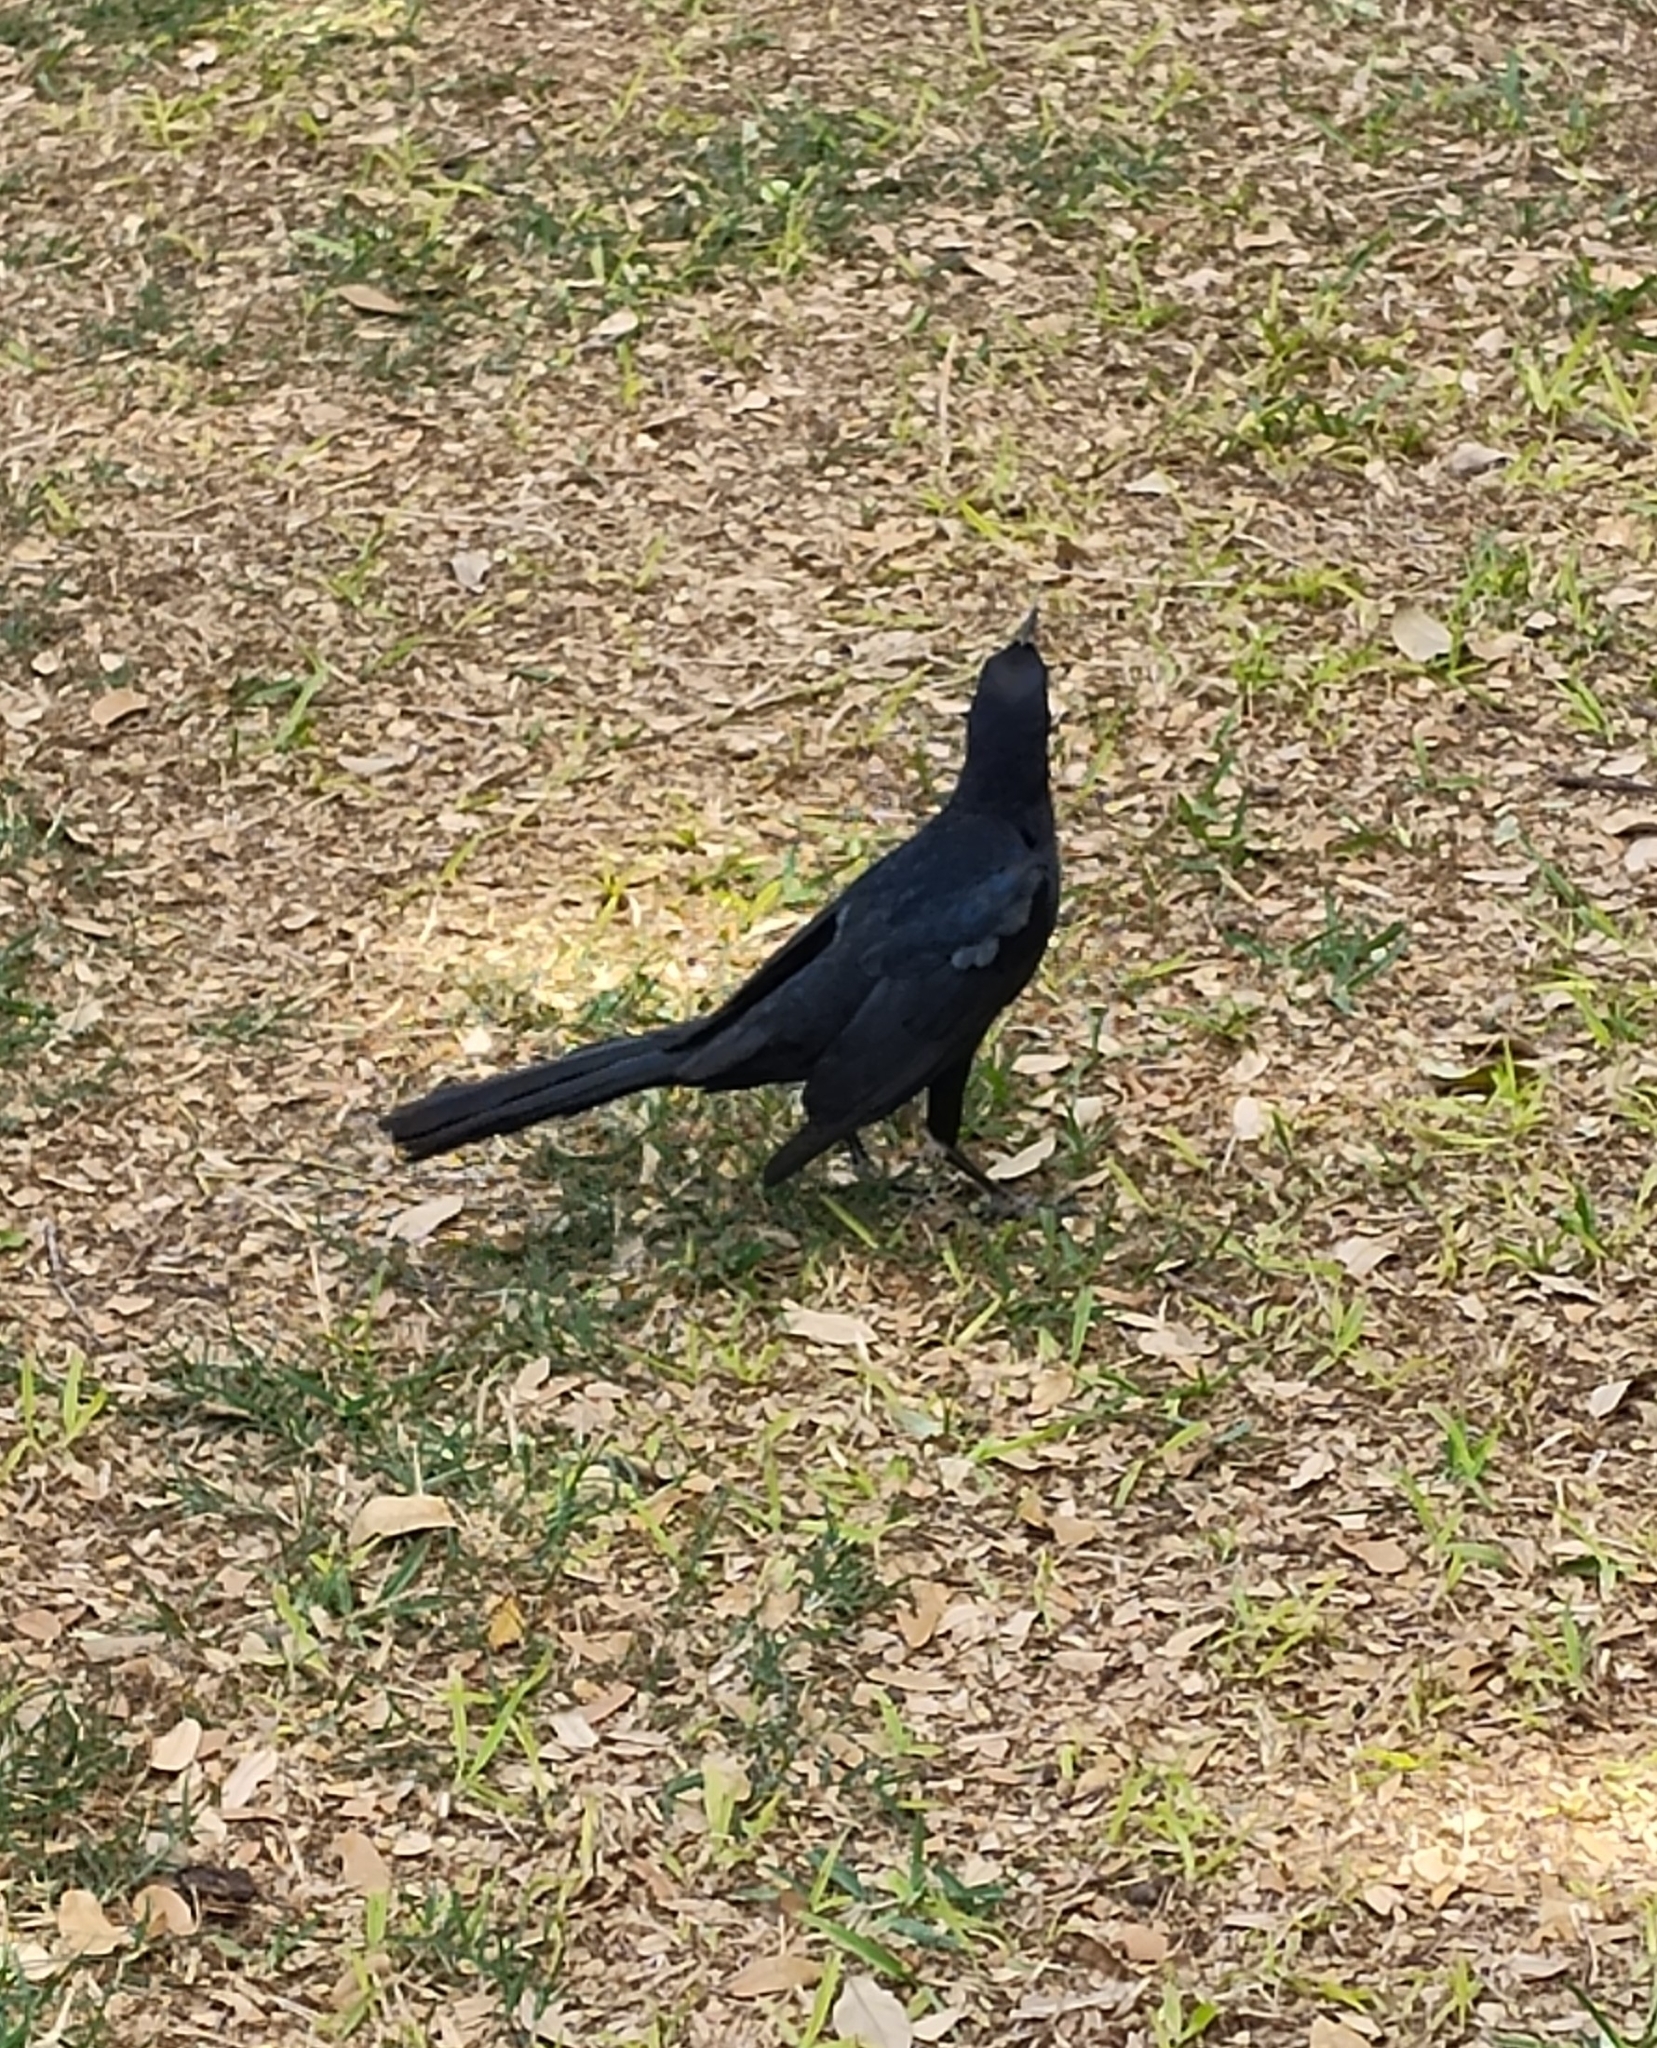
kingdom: Animalia
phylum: Chordata
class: Aves
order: Passeriformes
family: Icteridae
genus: Quiscalus
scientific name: Quiscalus mexicanus
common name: Great-tailed grackle
